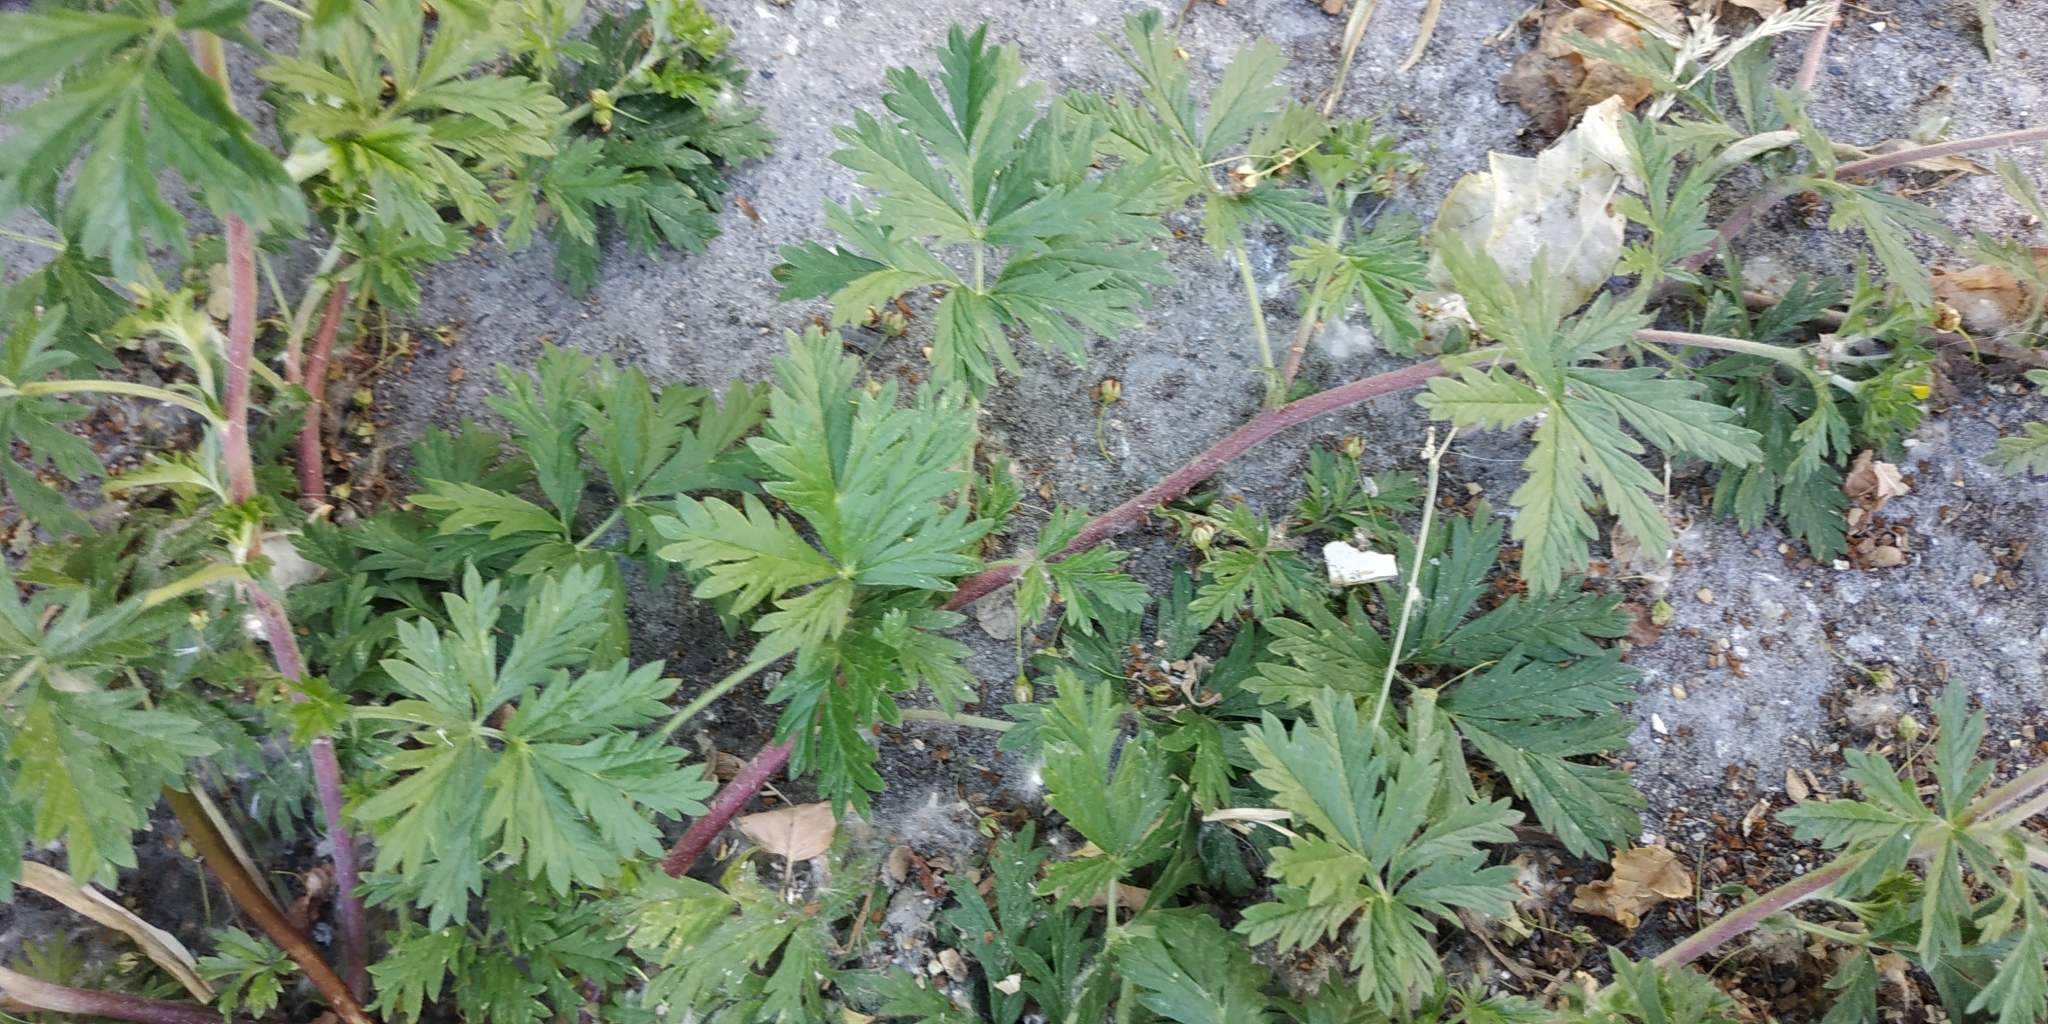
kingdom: Plantae
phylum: Tracheophyta
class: Magnoliopsida
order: Rosales
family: Rosaceae
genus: Potentilla
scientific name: Potentilla tobolensis
